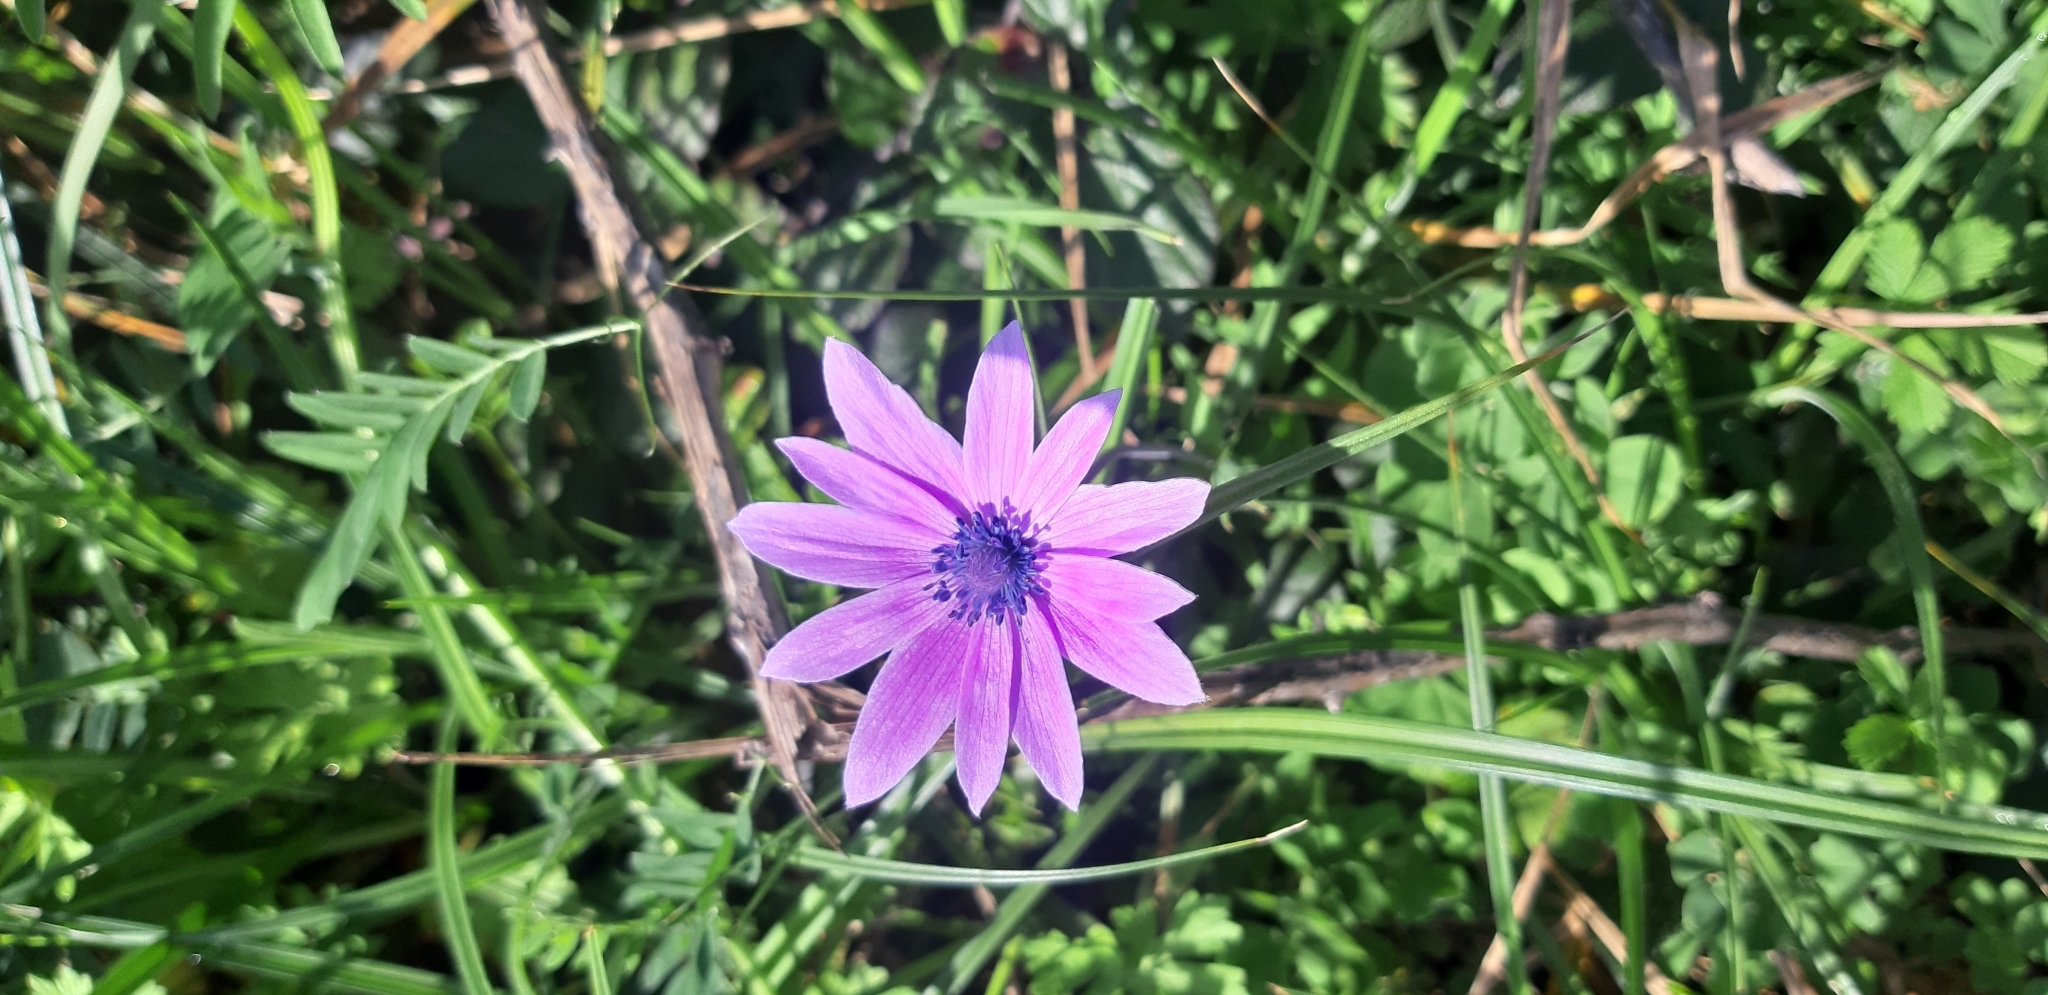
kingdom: Plantae
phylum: Tracheophyta
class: Magnoliopsida
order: Ranunculales
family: Ranunculaceae
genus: Anemone
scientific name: Anemone hortensis
